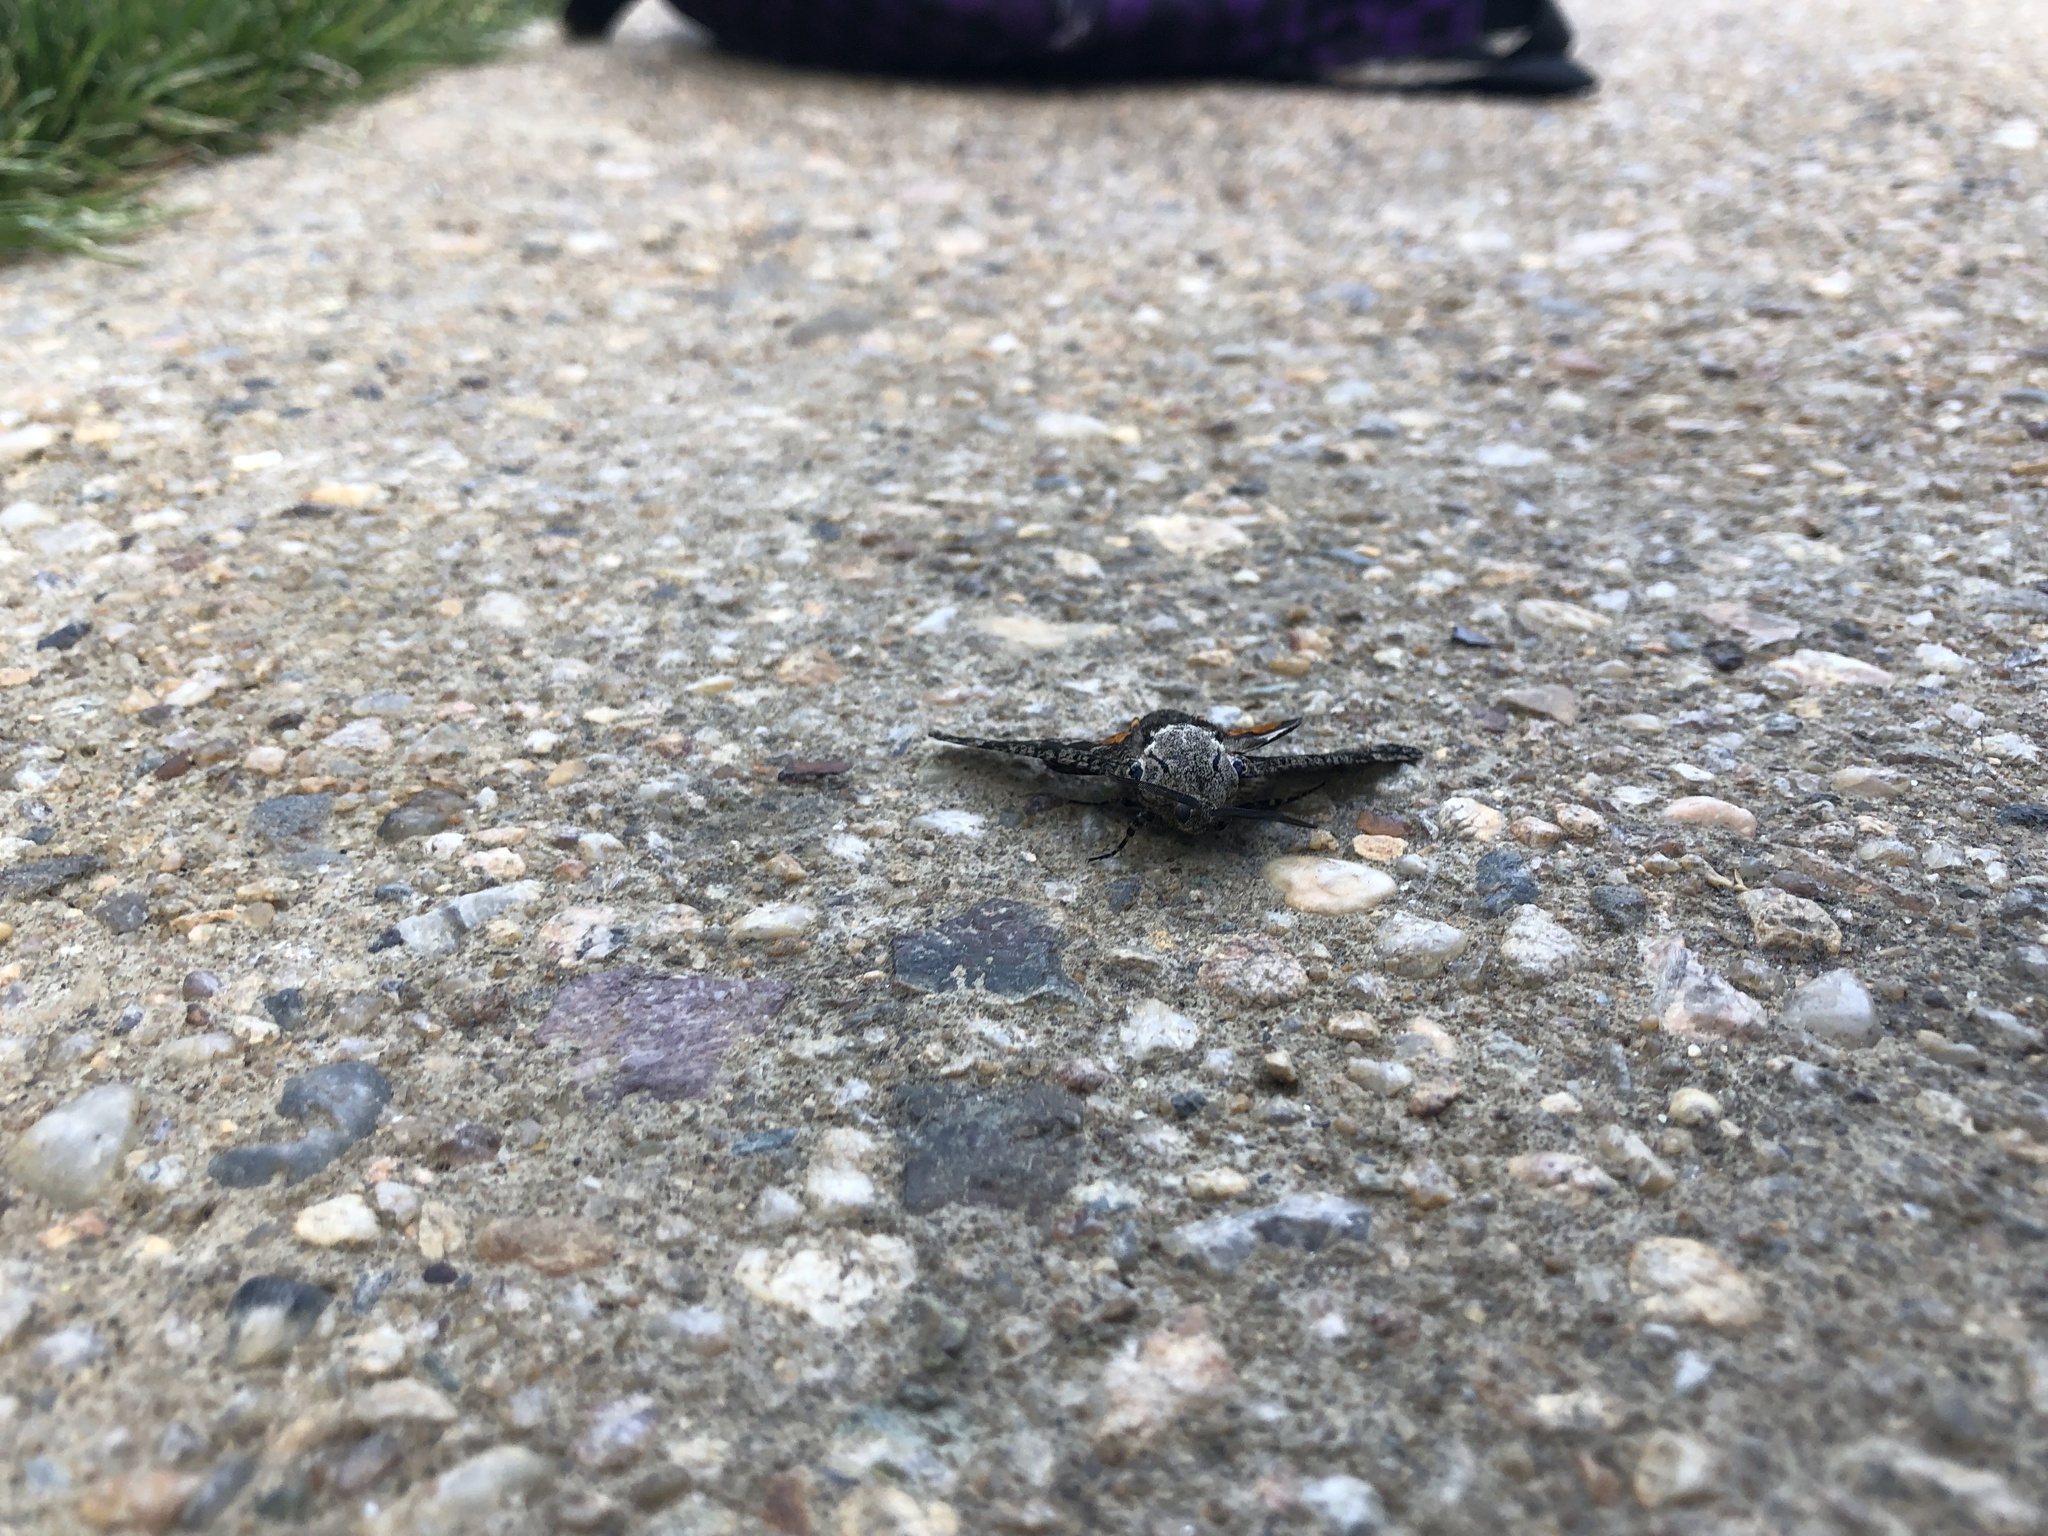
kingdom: Animalia
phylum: Arthropoda
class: Insecta
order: Lepidoptera
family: Cossidae
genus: Prionoxystus
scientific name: Prionoxystus robiniae
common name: Carpenterworm
